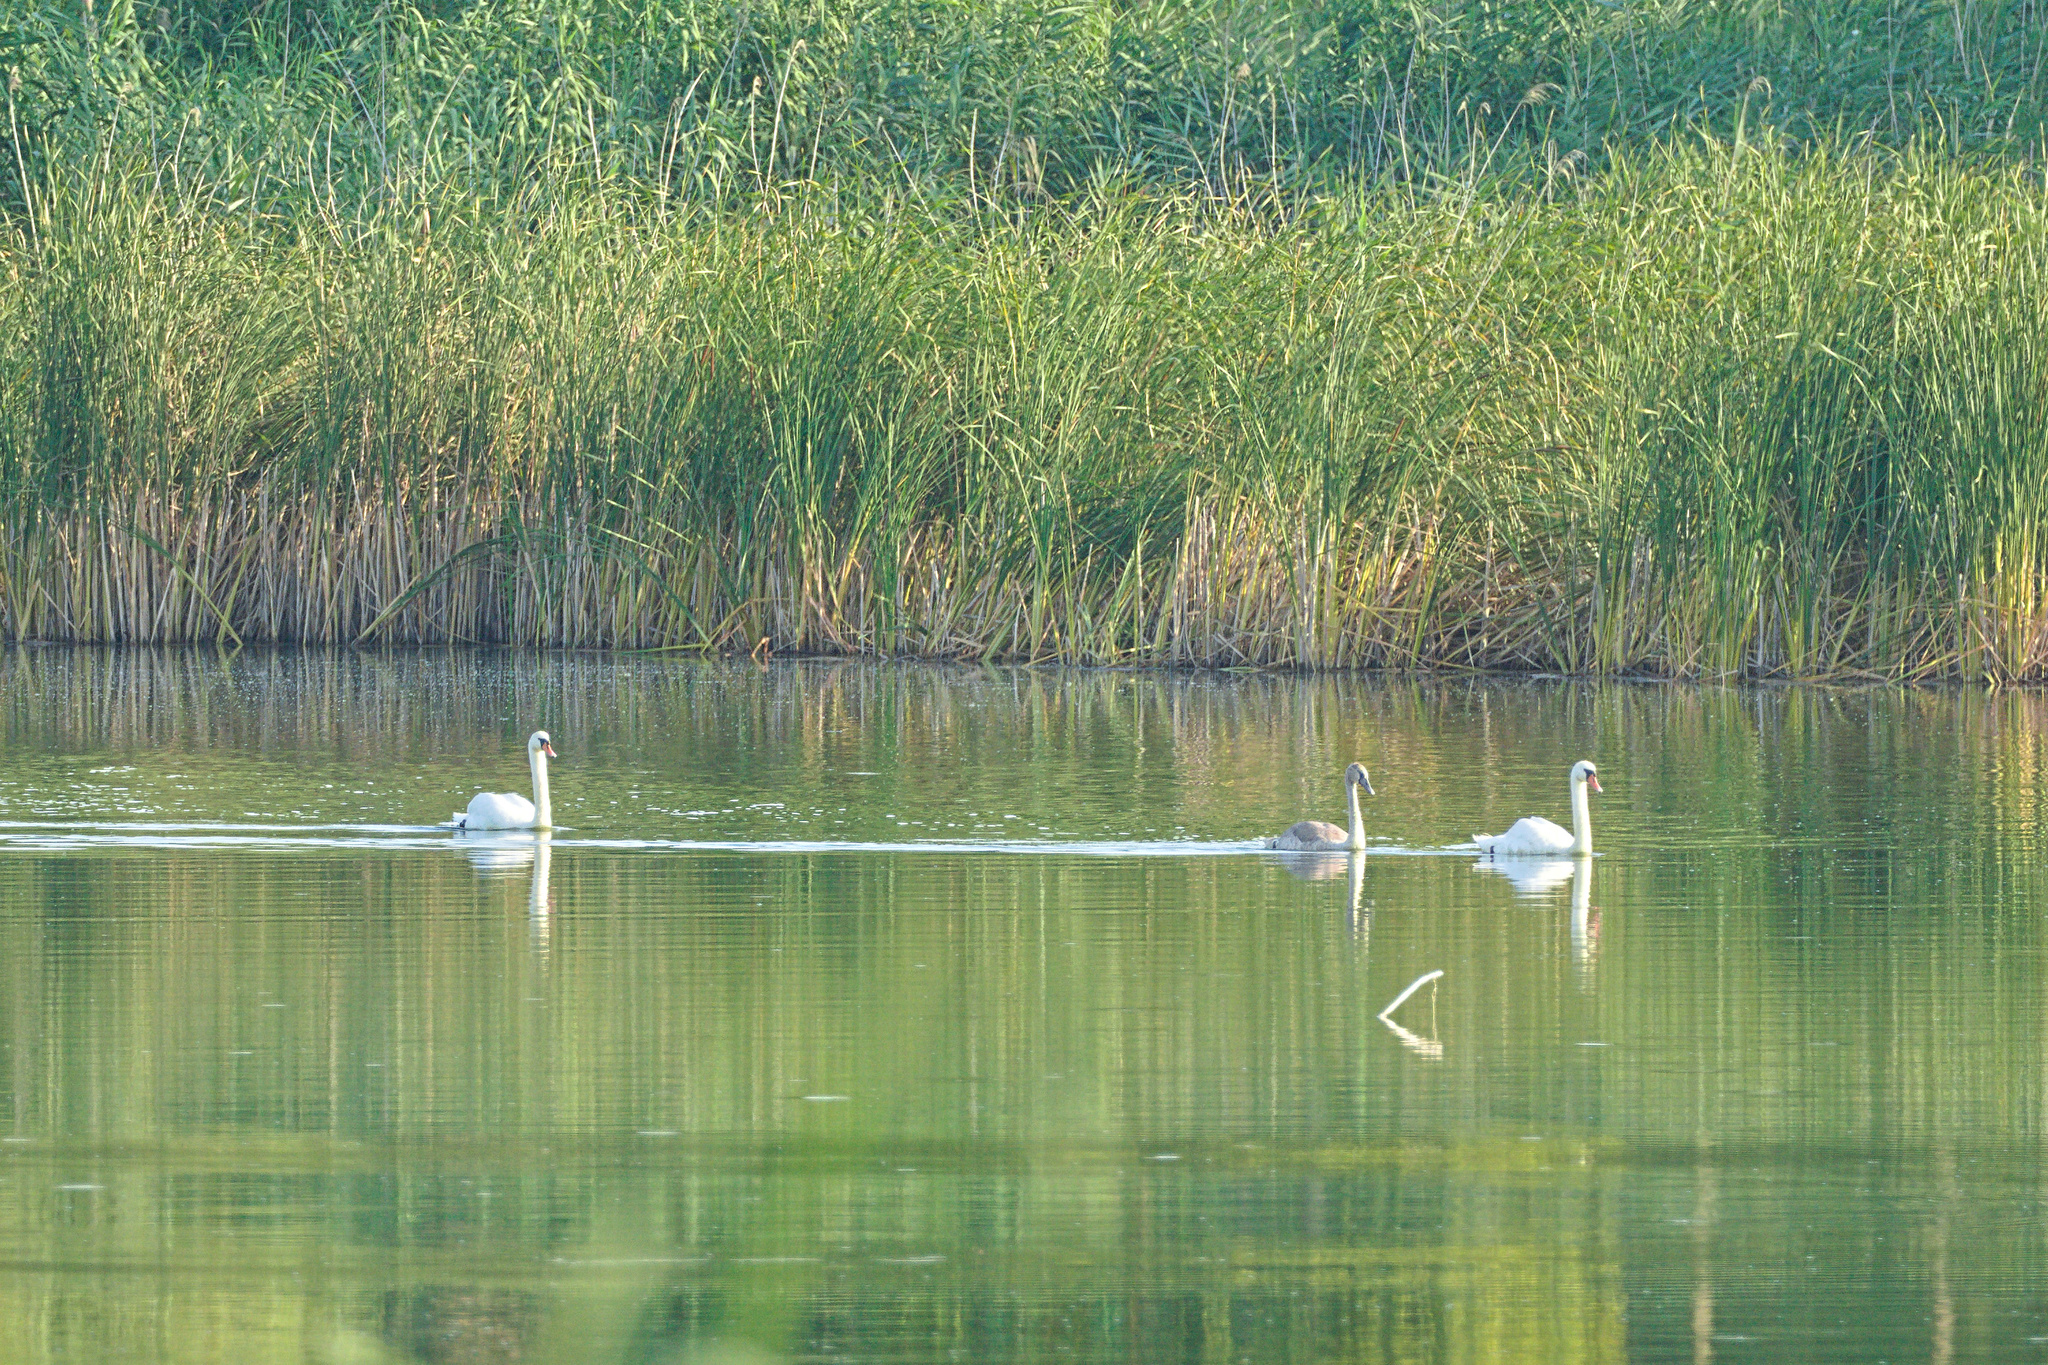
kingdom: Animalia
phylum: Chordata
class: Aves
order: Anseriformes
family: Anatidae
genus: Cygnus
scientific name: Cygnus olor
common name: Mute swan
